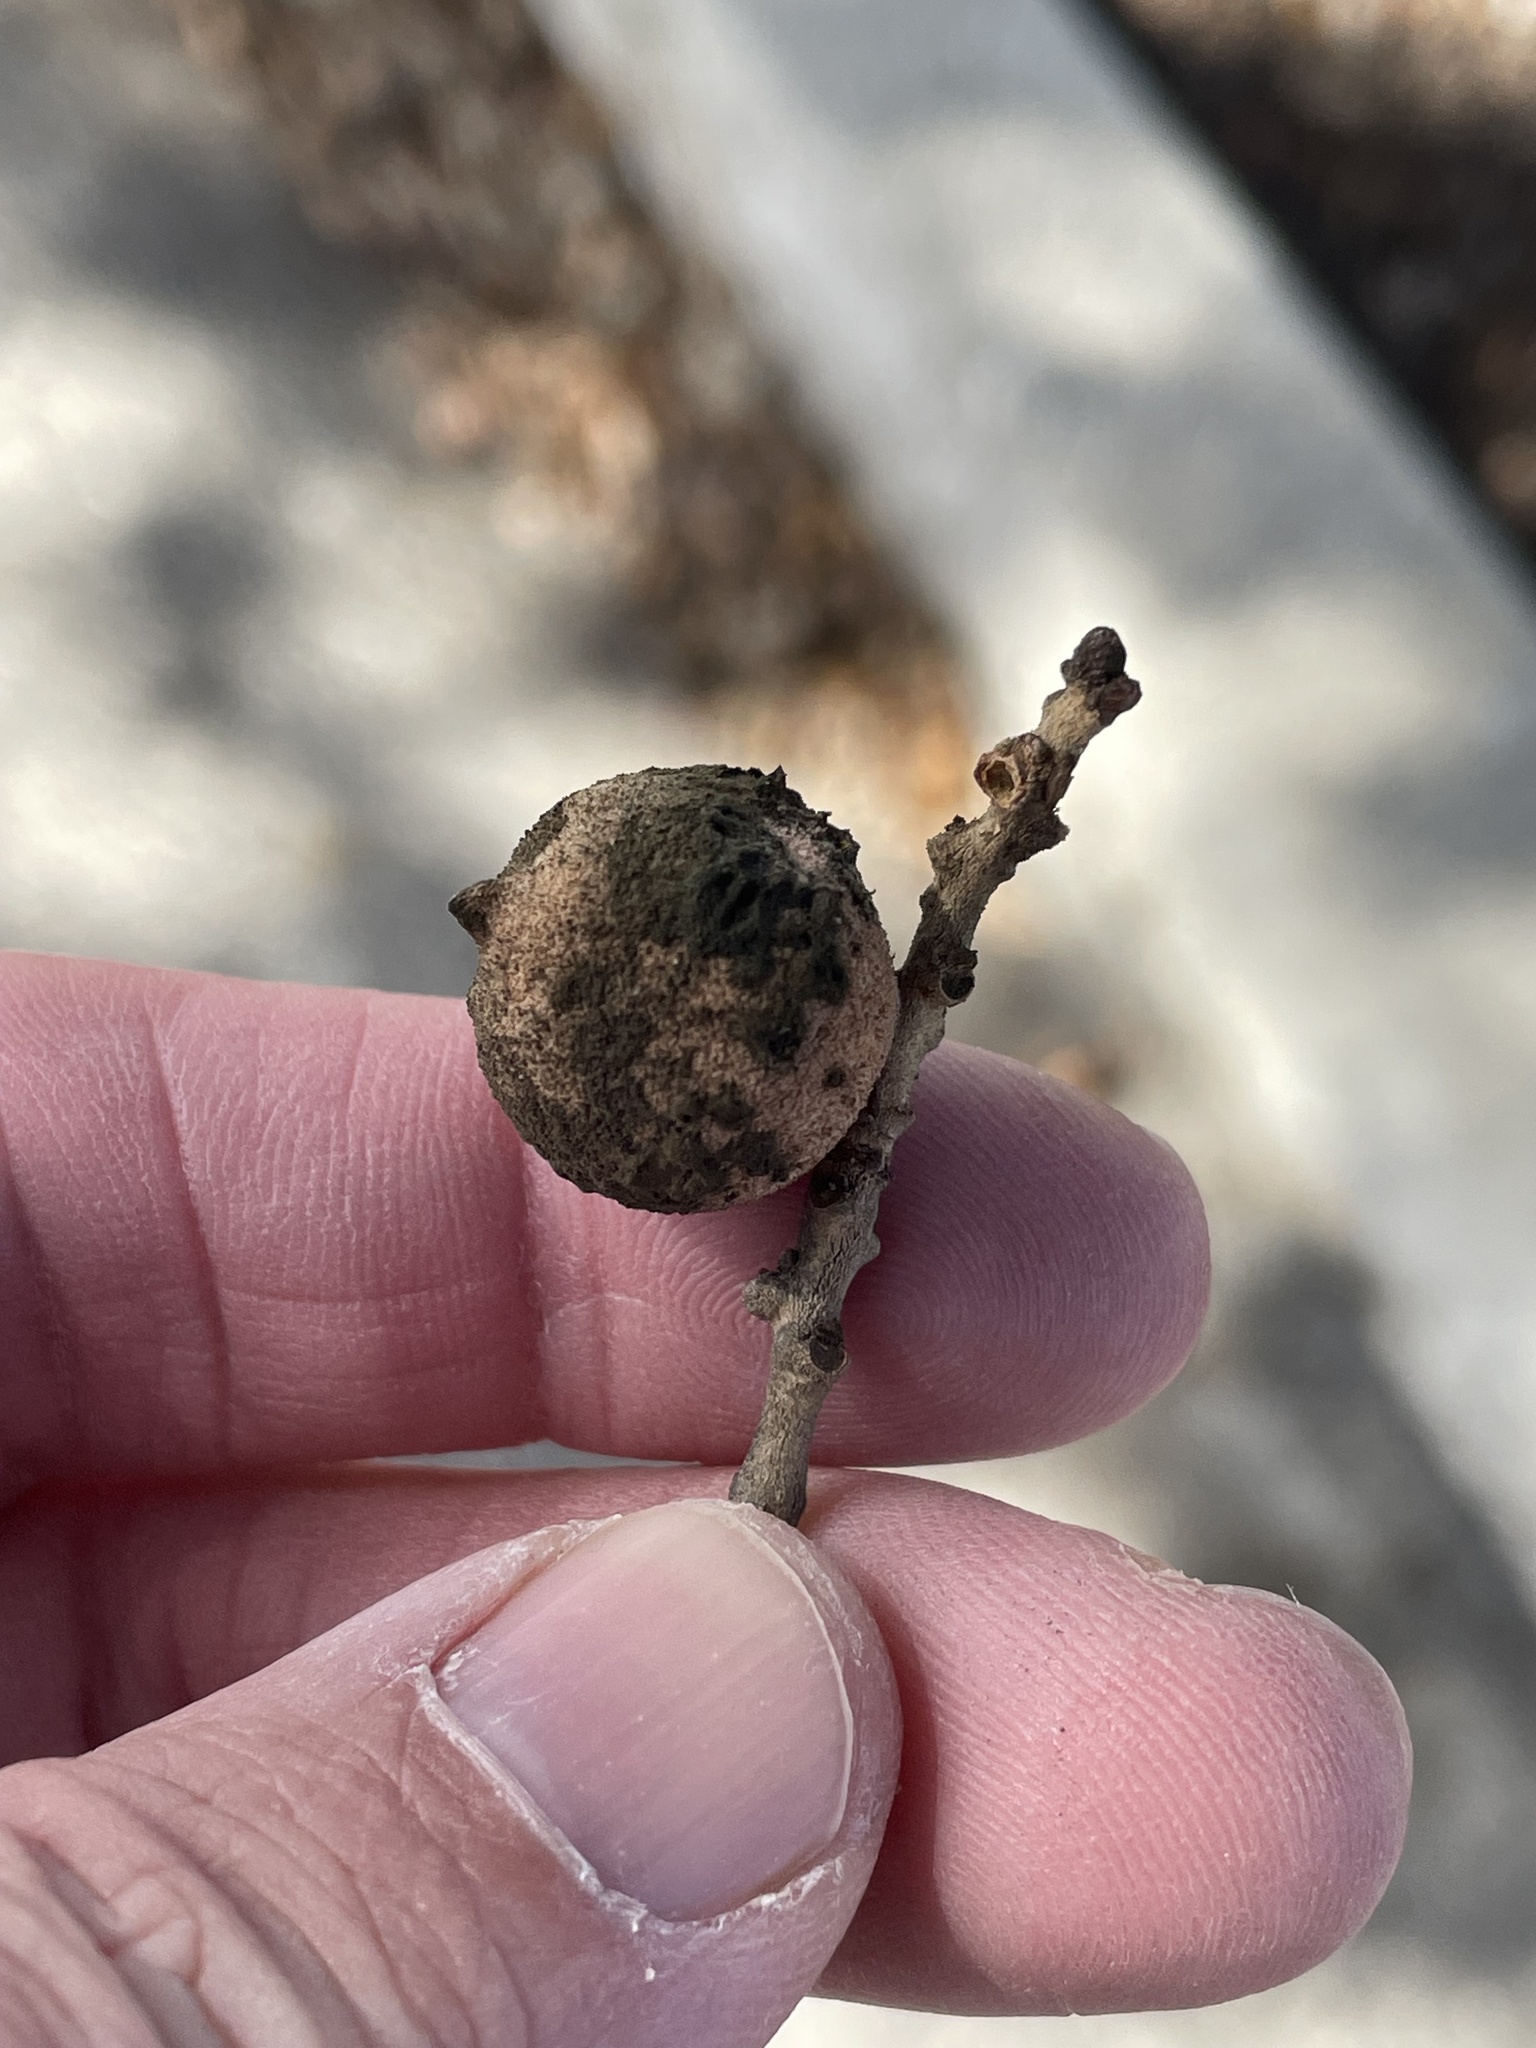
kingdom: Animalia
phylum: Arthropoda
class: Insecta
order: Hymenoptera
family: Cynipidae
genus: Disholcaspis
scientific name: Disholcaspis
